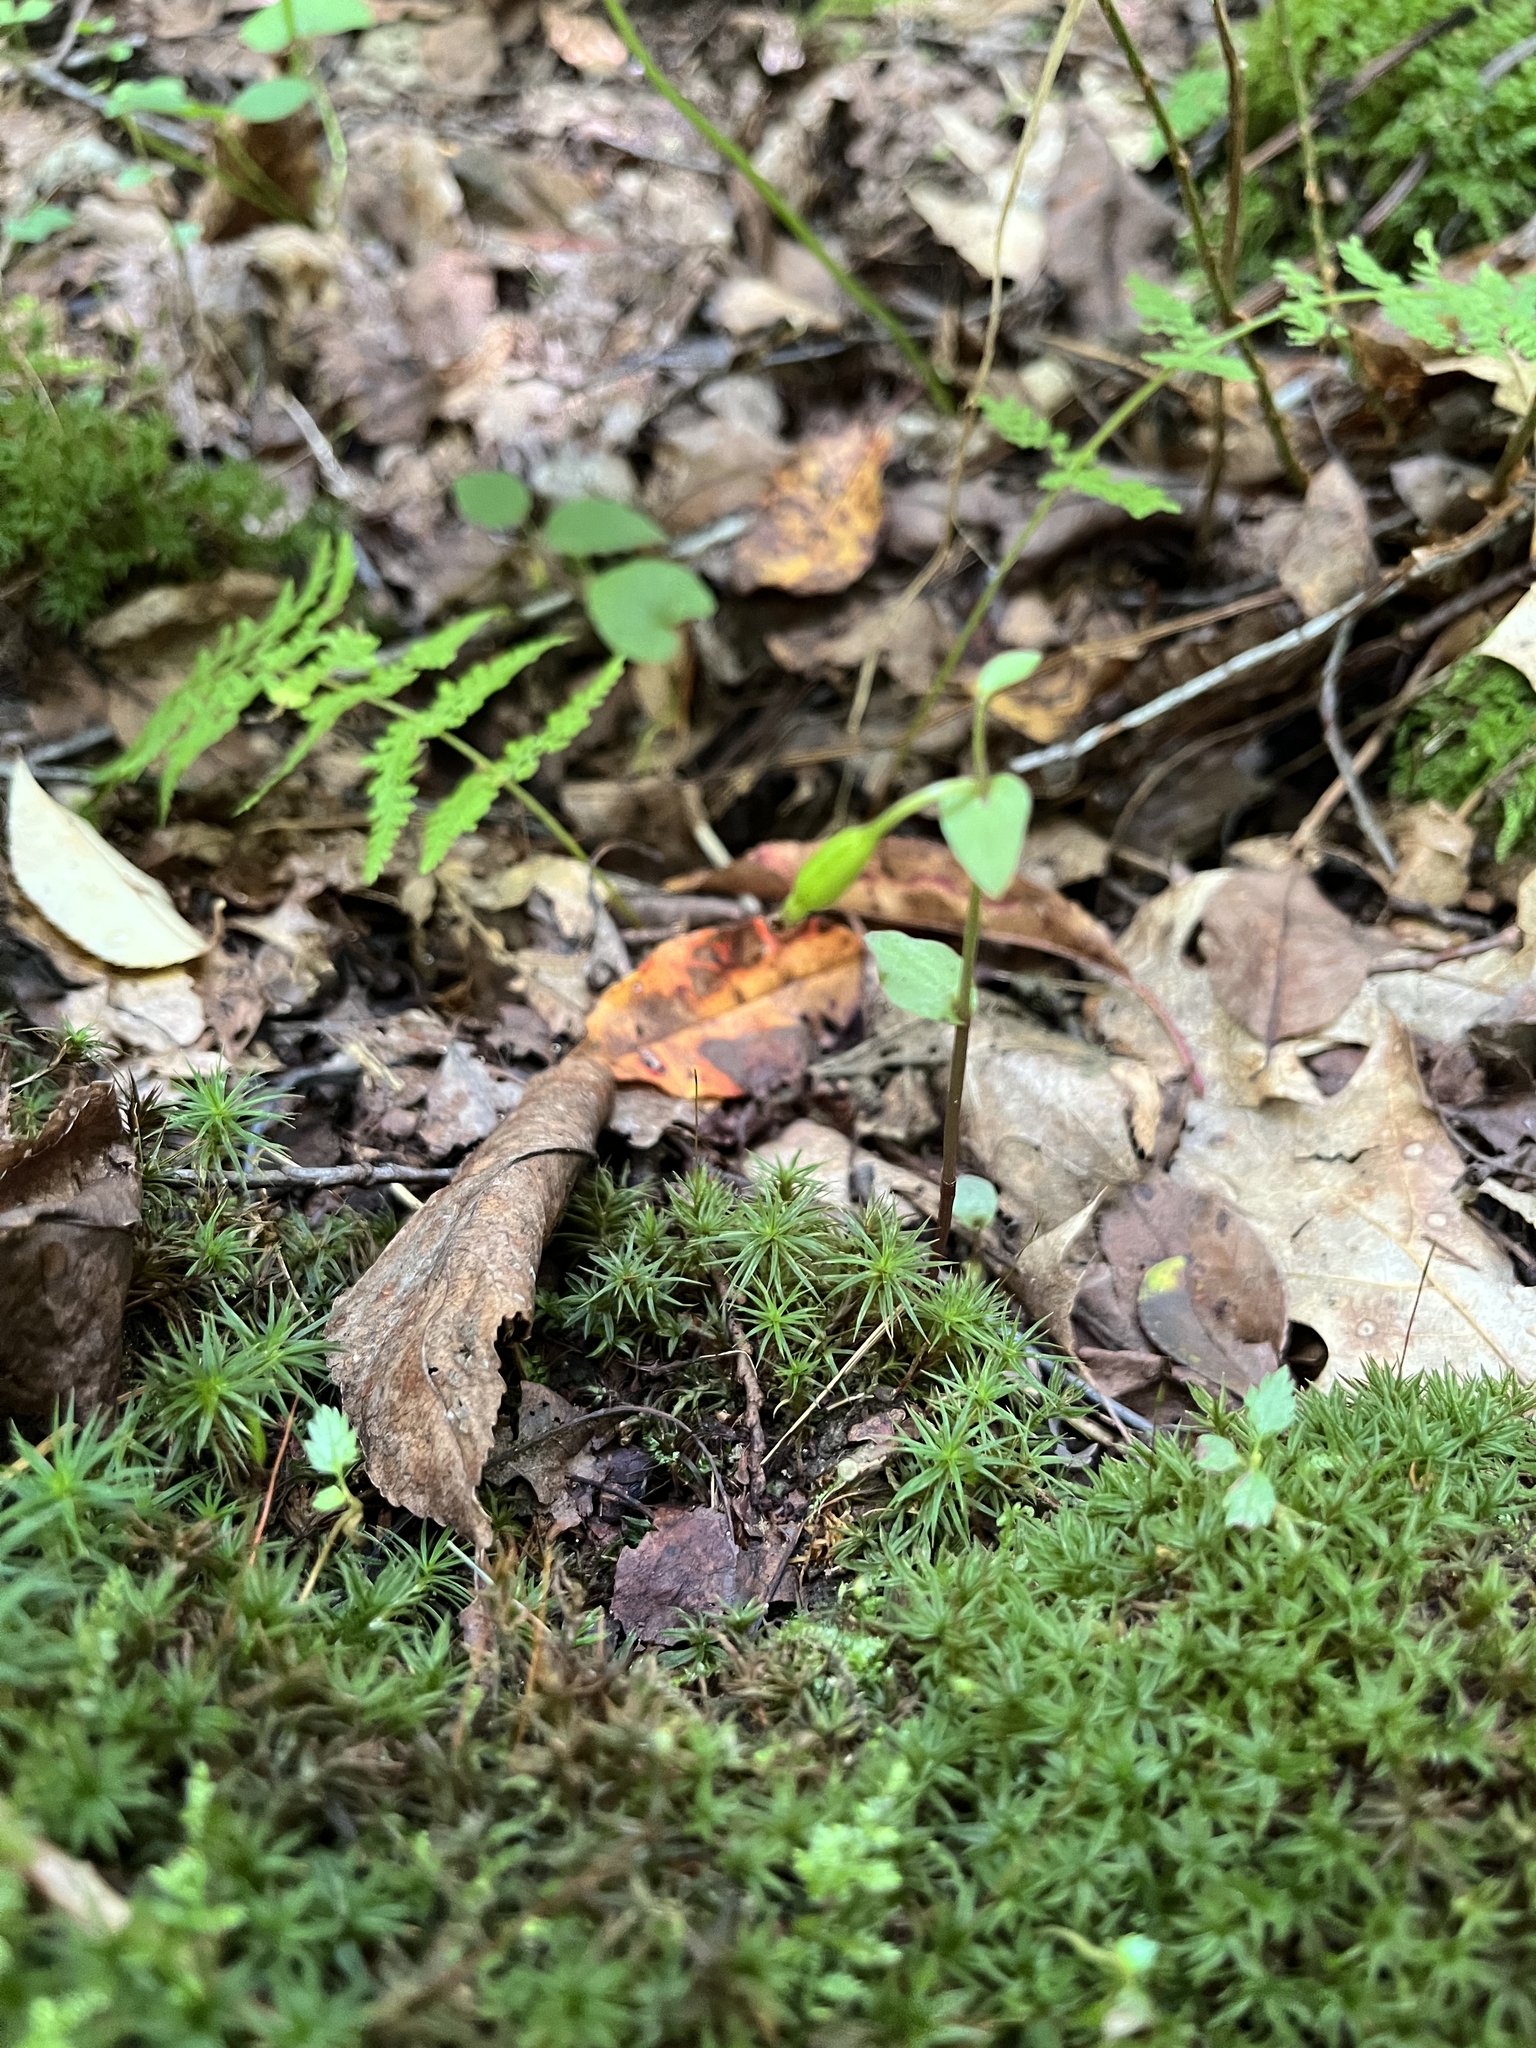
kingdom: Plantae
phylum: Tracheophyta
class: Liliopsida
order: Asparagales
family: Orchidaceae
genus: Triphora
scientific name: Triphora trianthophoros
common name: Three birds orchid
